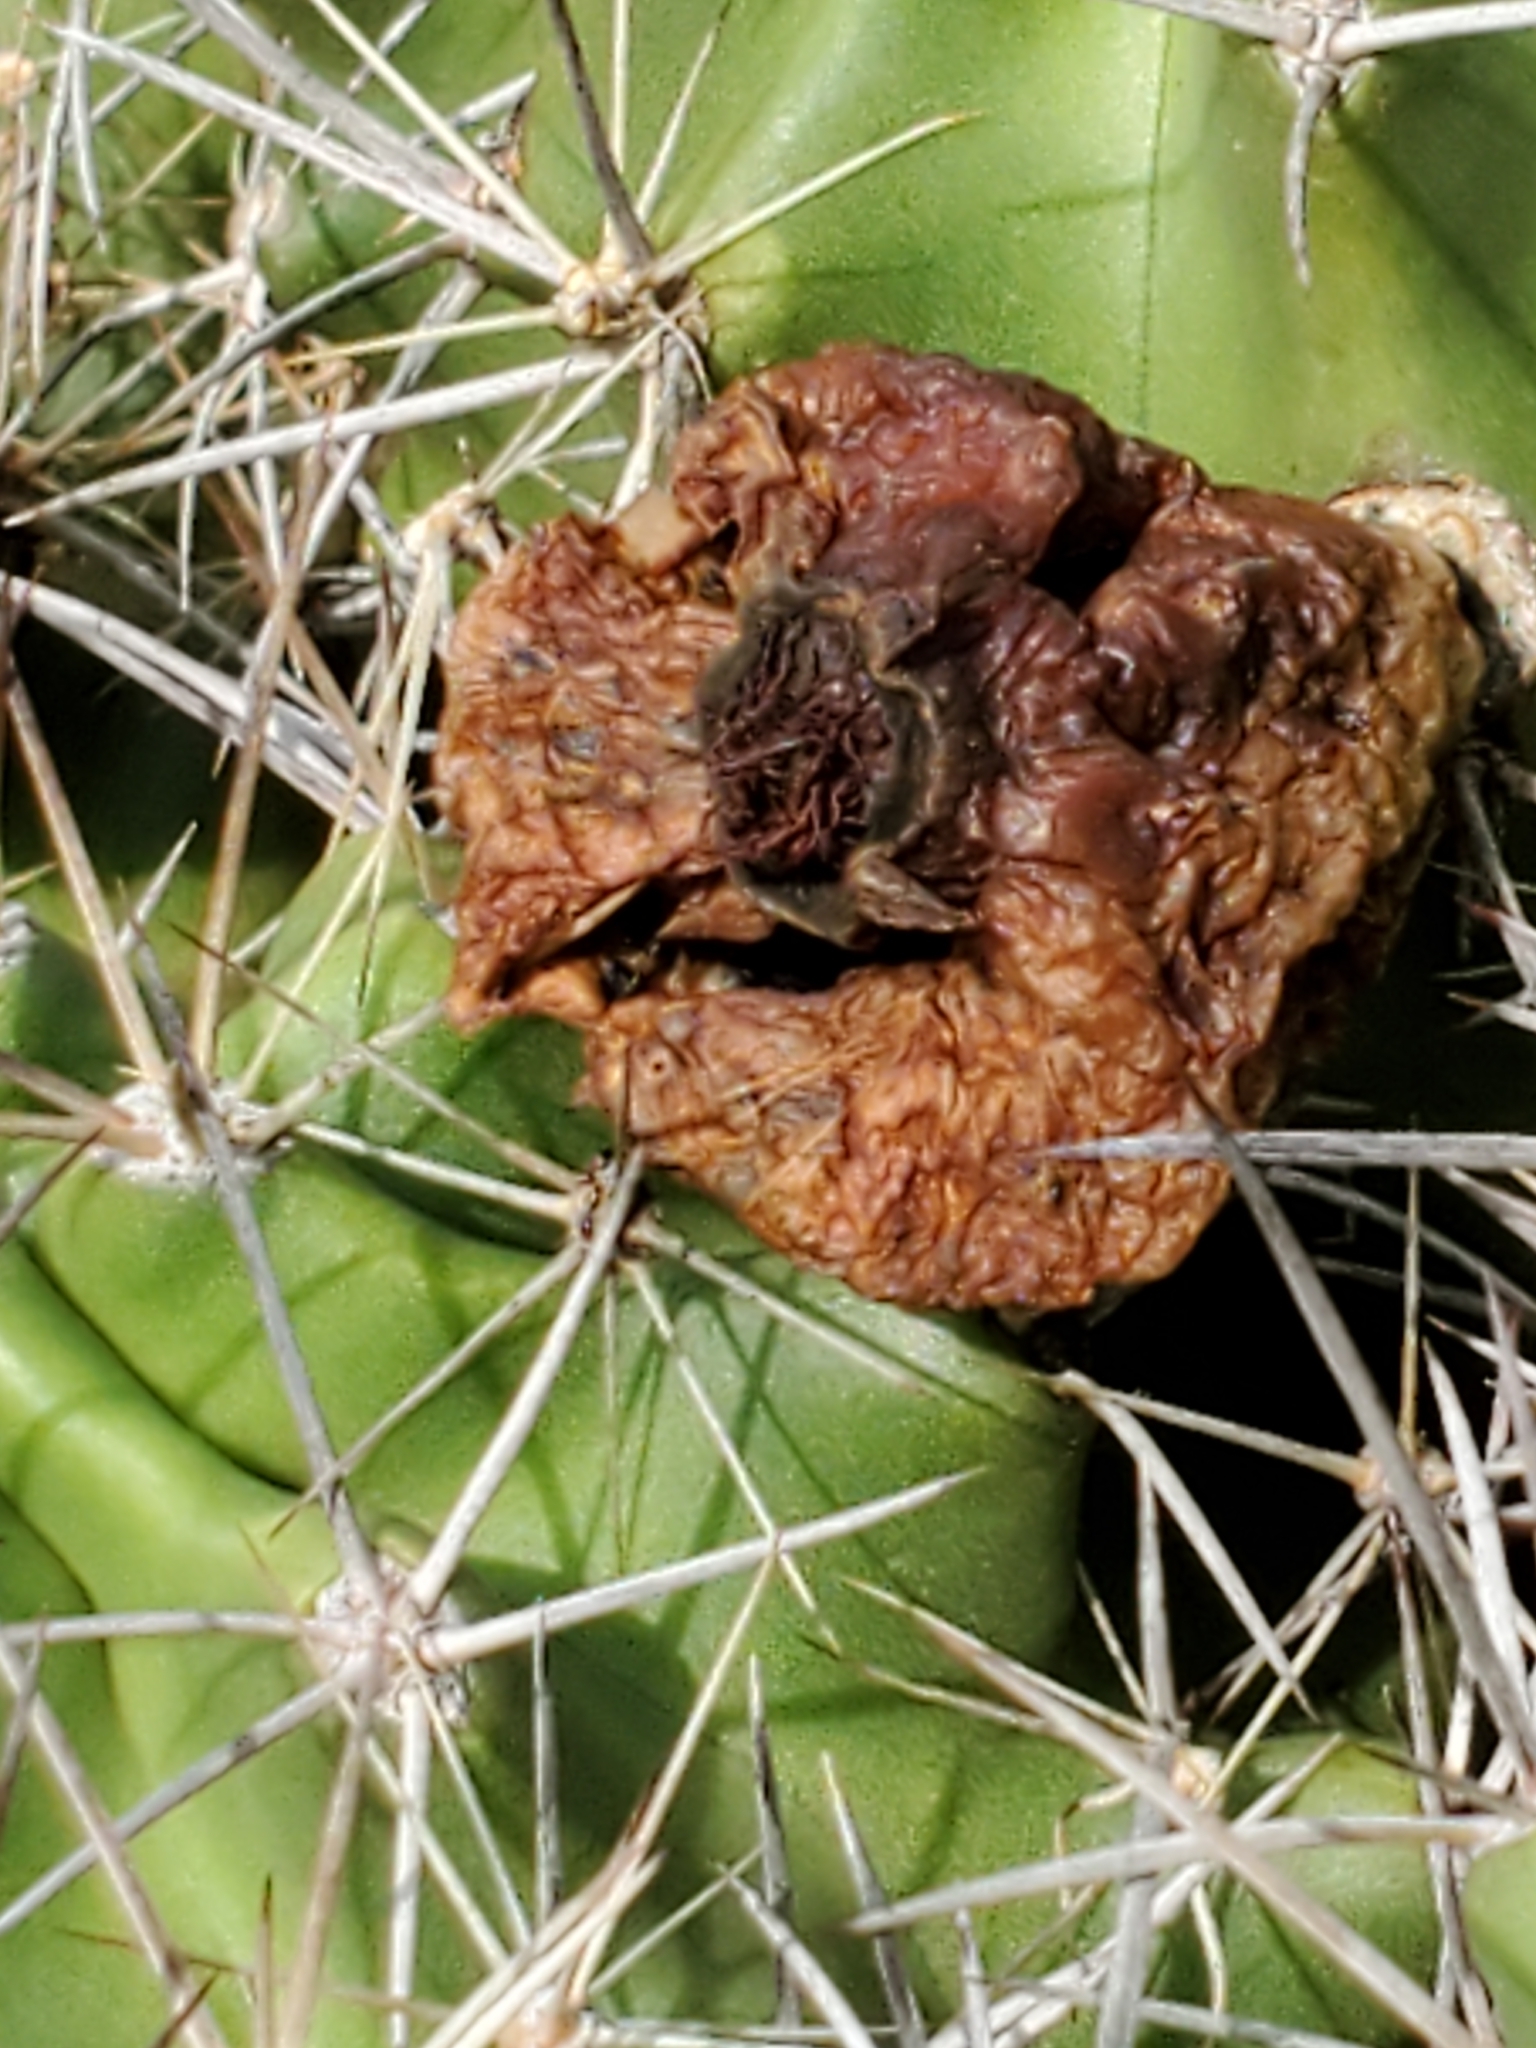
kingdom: Plantae
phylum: Tracheophyta
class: Magnoliopsida
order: Caryophyllales
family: Cactaceae
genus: Echinocereus
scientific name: Echinocereus coccineus
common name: Scarlet hedgehog cactus
